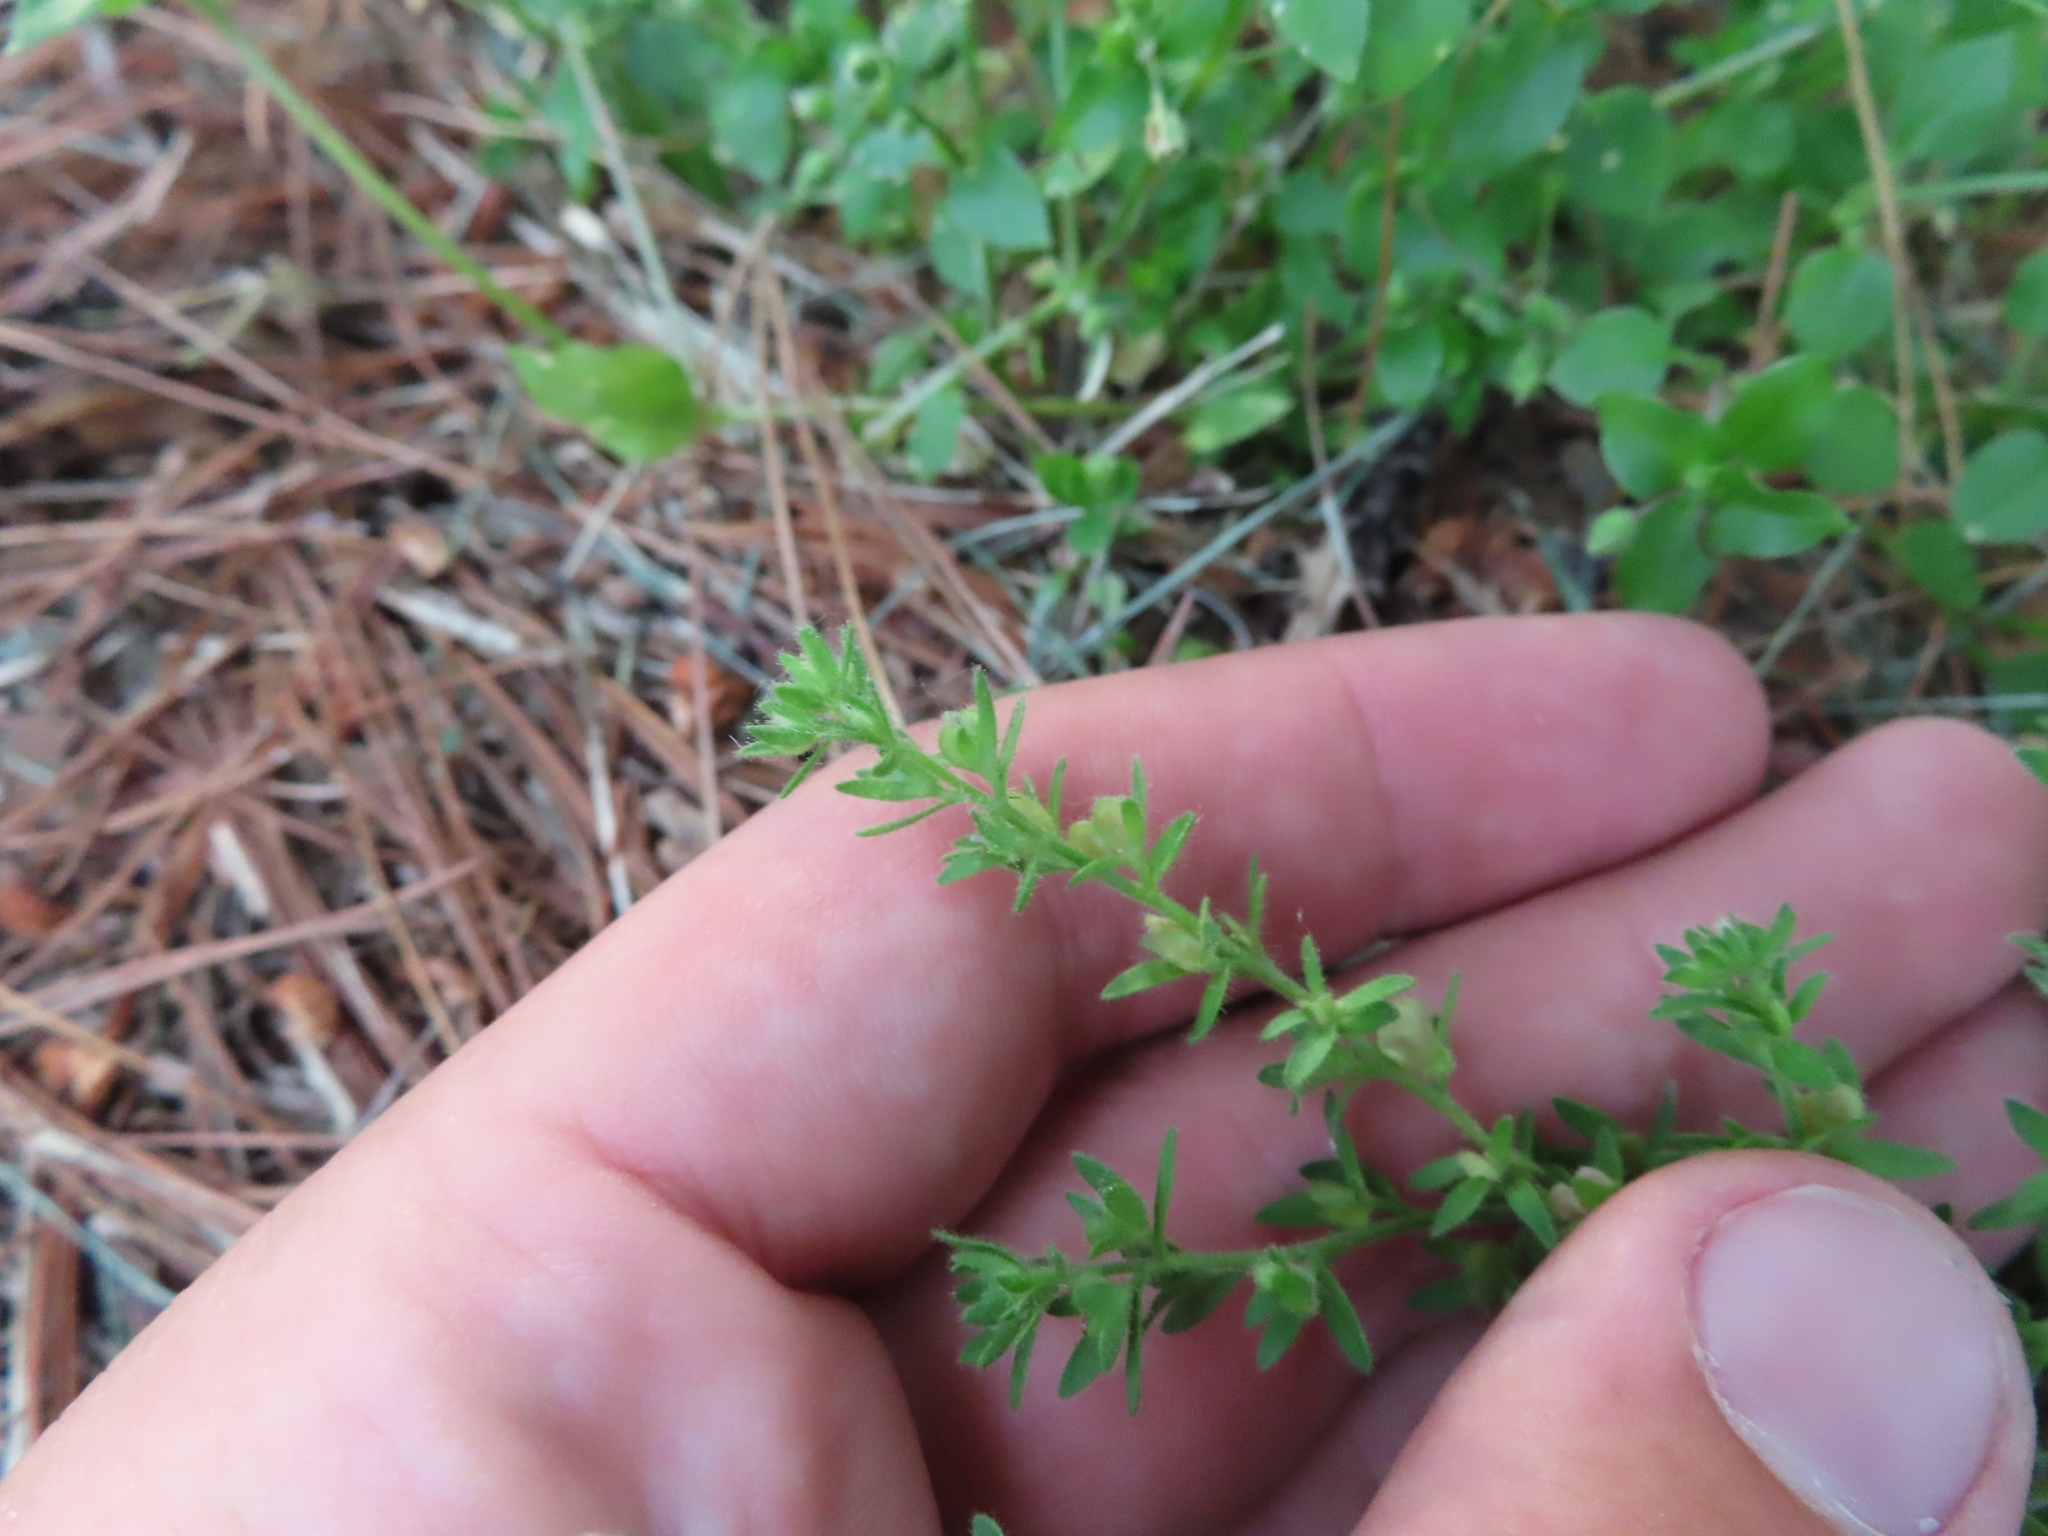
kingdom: Plantae
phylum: Tracheophyta
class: Magnoliopsida
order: Lamiales
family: Plantaginaceae
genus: Veronica
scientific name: Veronica arvensis
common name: Corn speedwell
